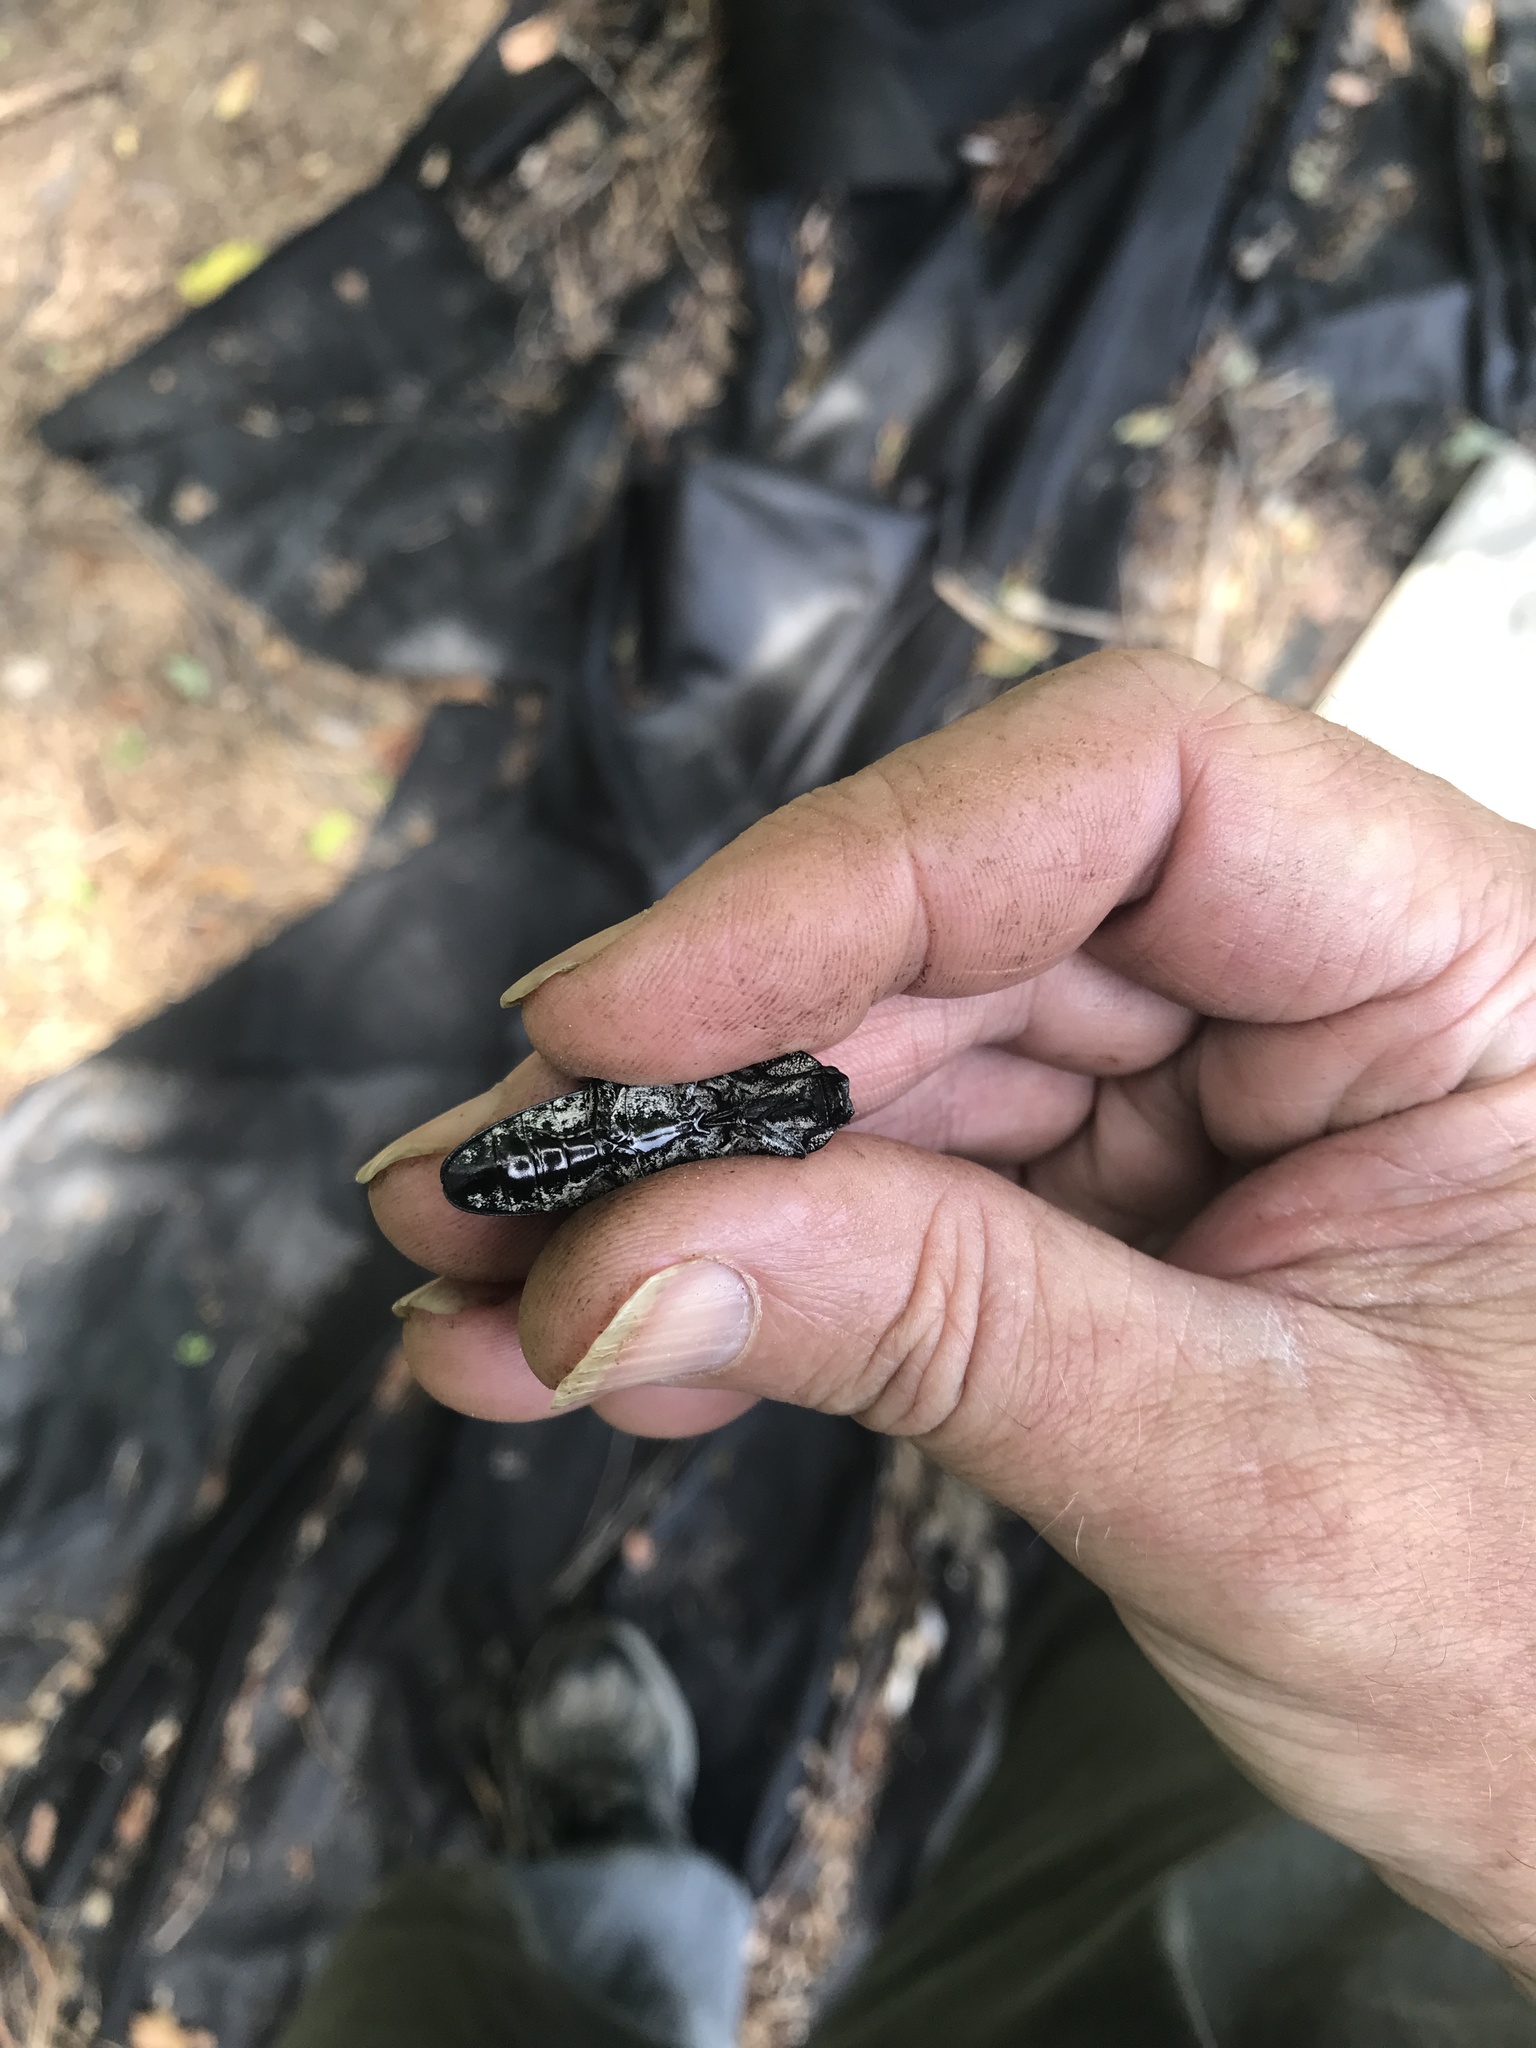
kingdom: Animalia
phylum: Arthropoda
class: Insecta
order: Coleoptera
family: Elateridae
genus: Alaus
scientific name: Alaus oculatus
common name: Eastern eyed click beetle
